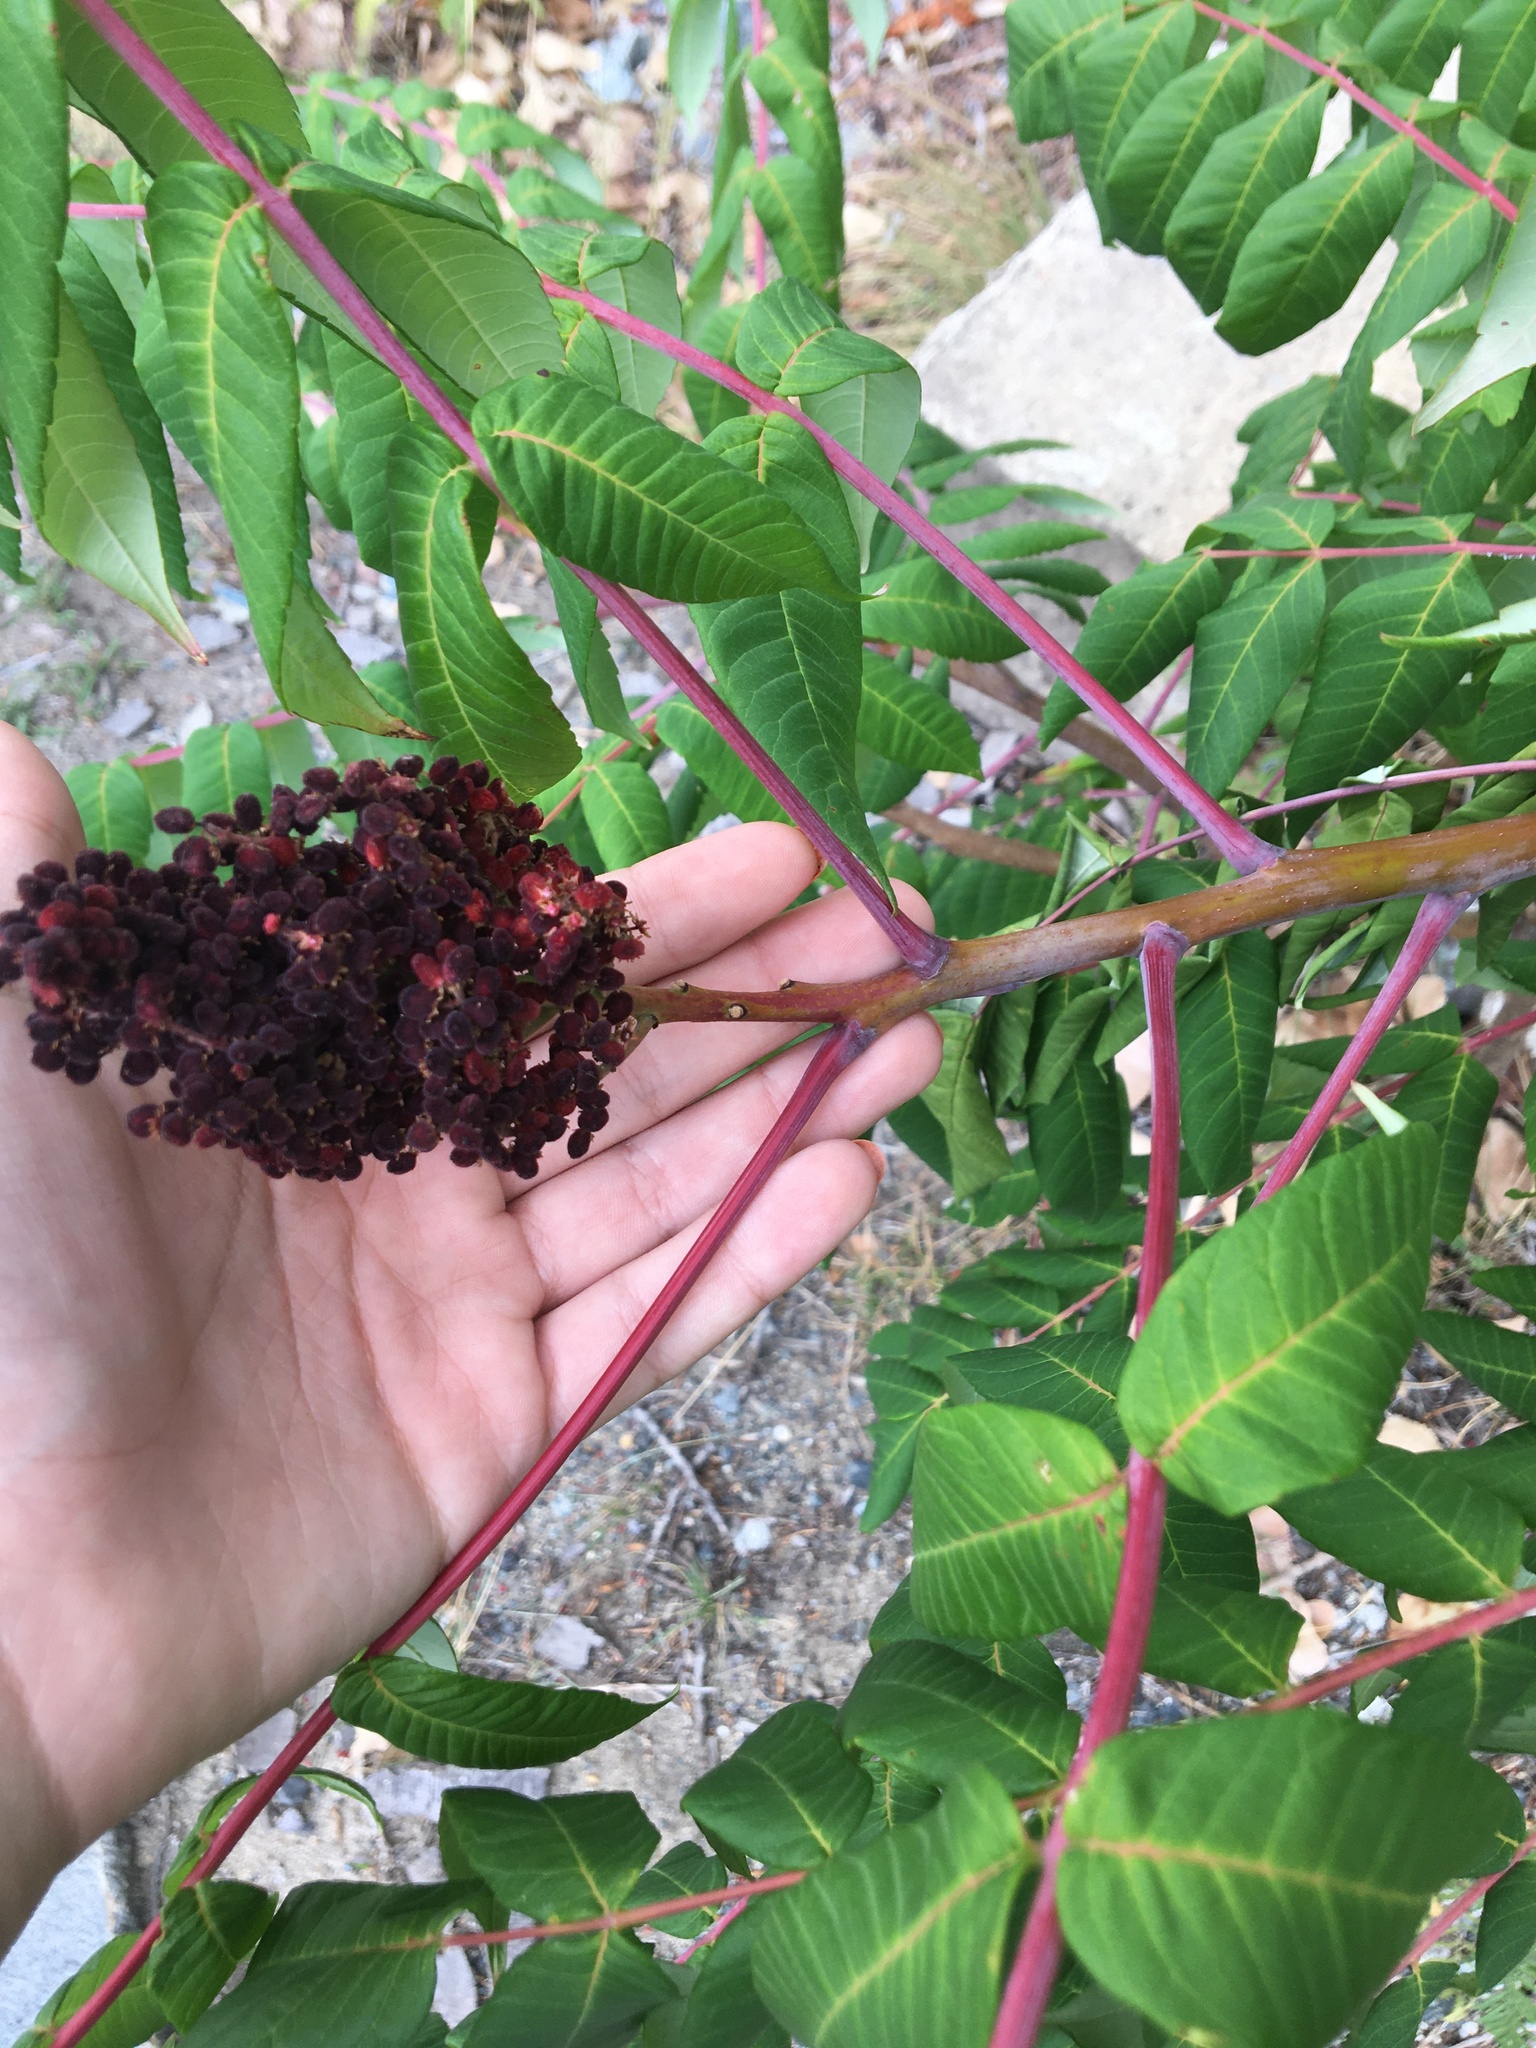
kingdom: Plantae
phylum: Tracheophyta
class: Magnoliopsida
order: Sapindales
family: Anacardiaceae
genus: Rhus
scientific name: Rhus glabra
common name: Scarlet sumac
